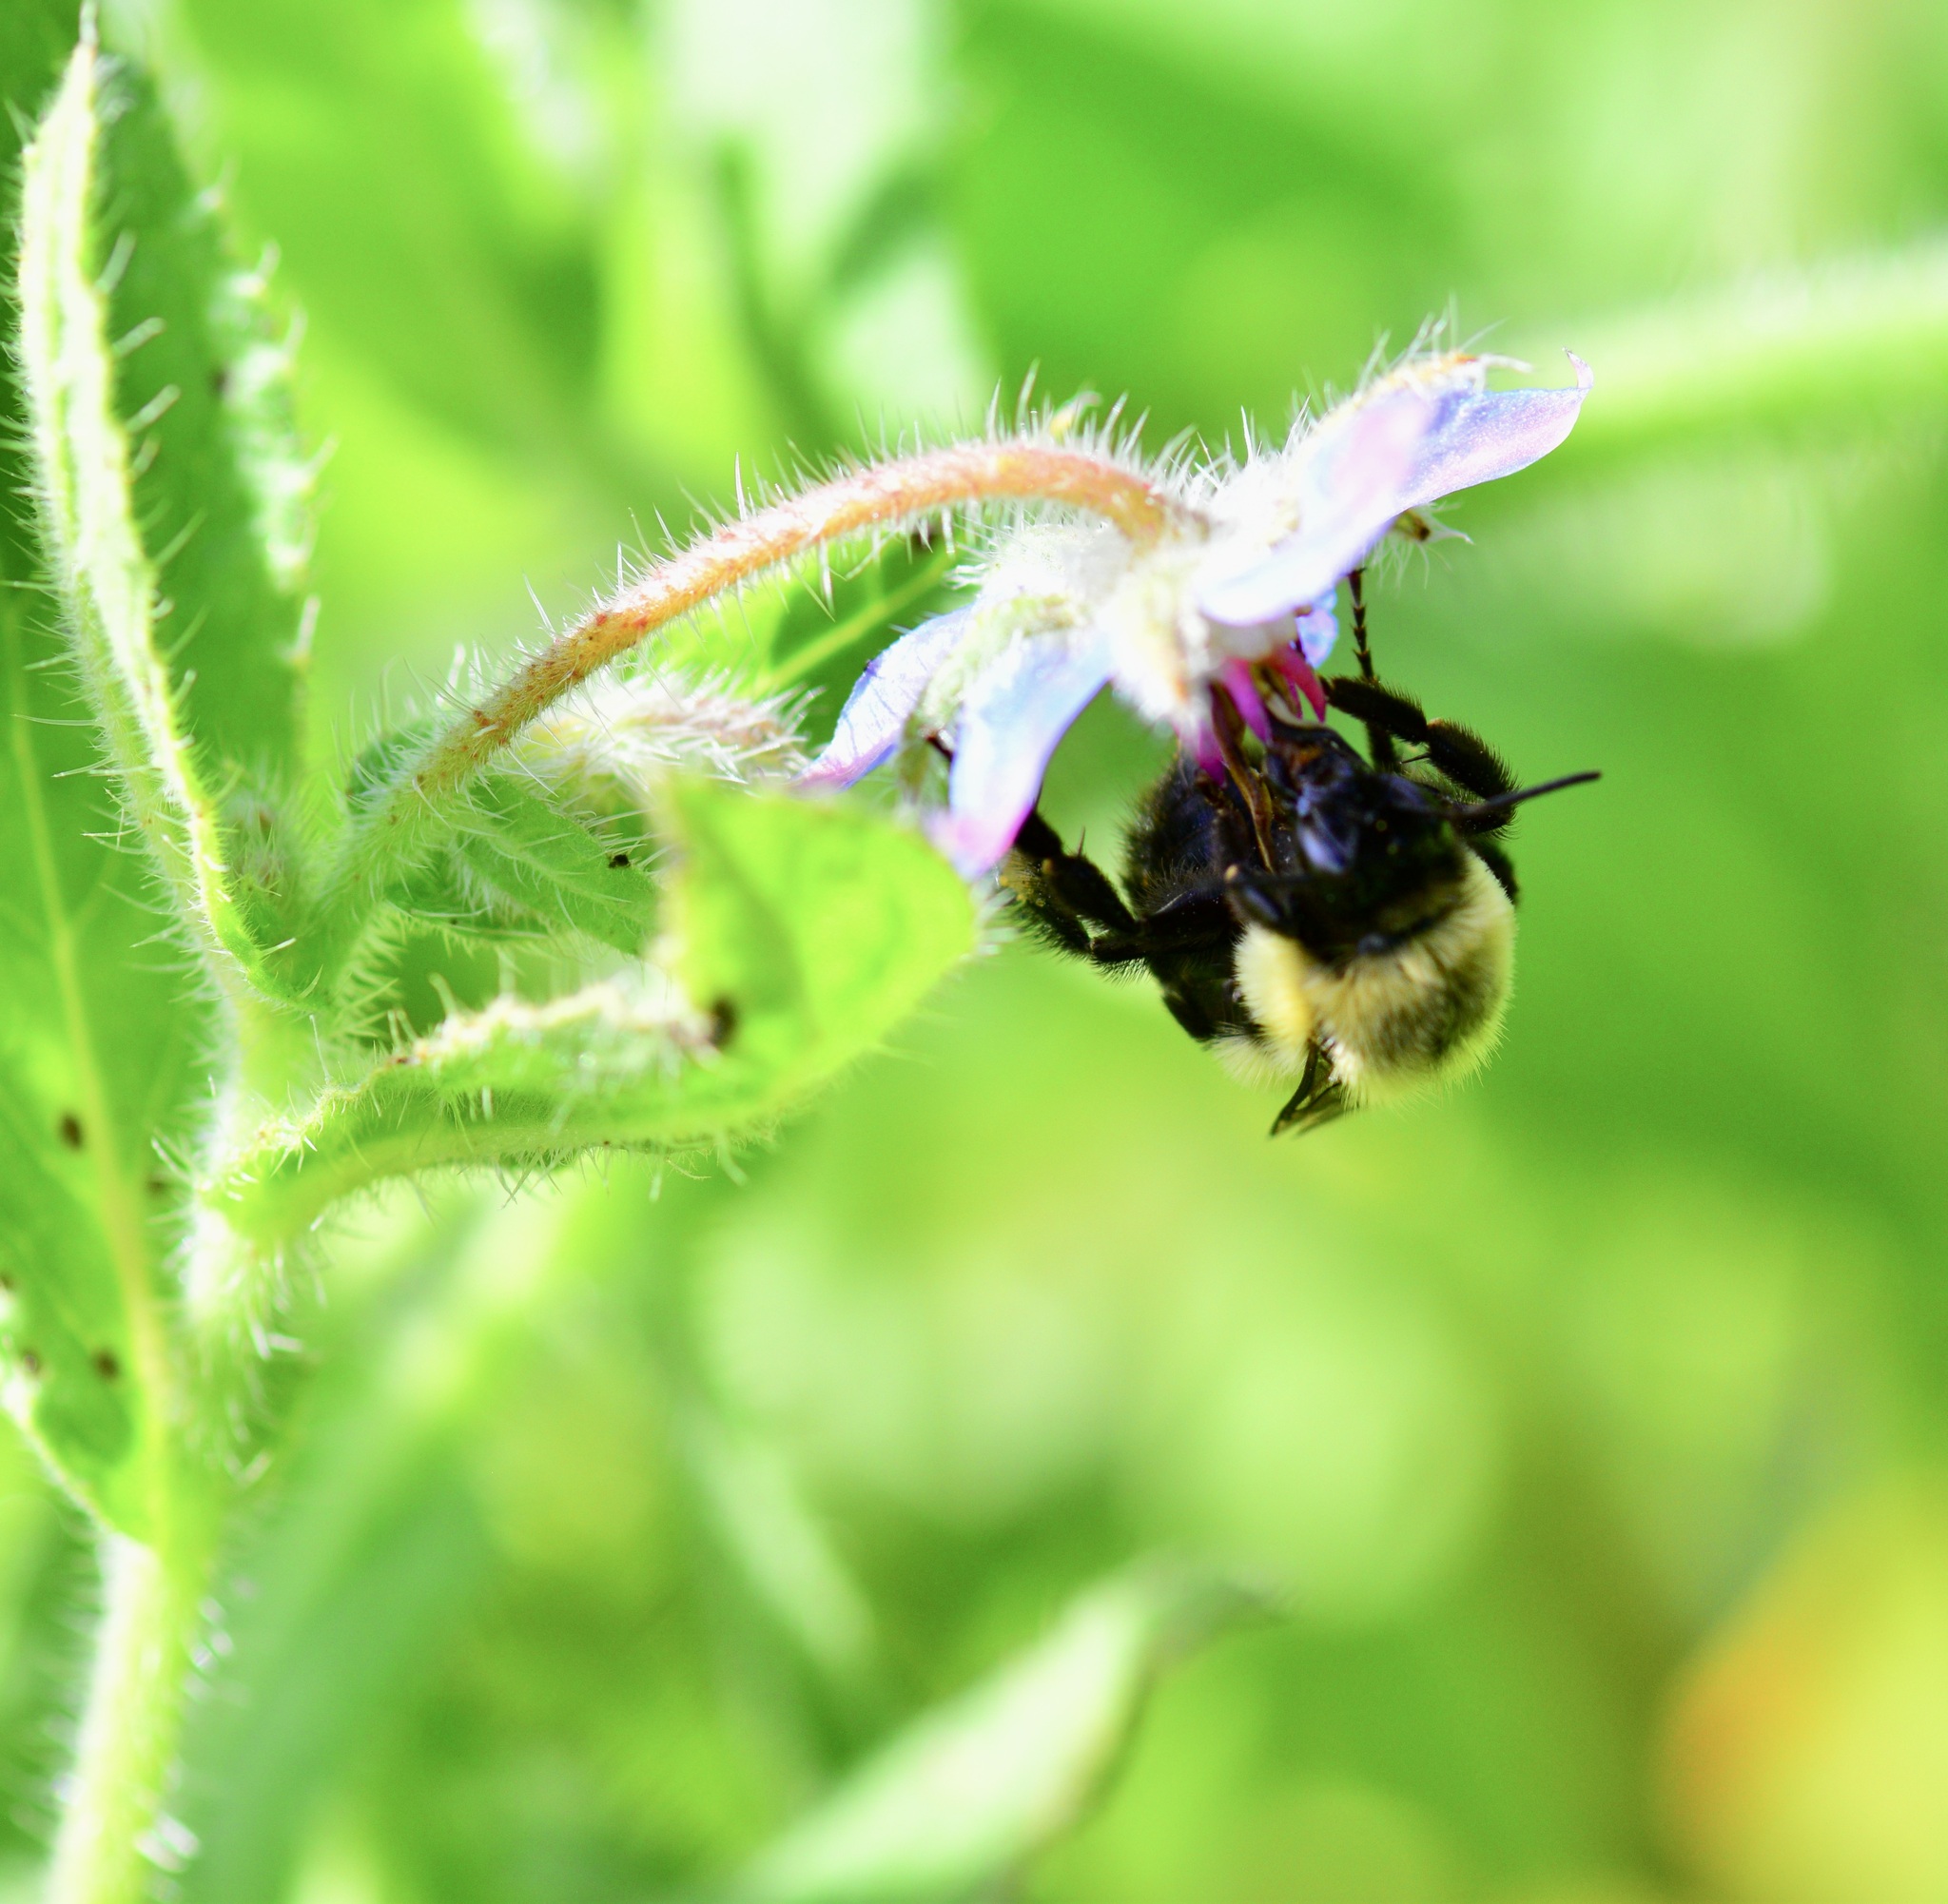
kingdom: Animalia
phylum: Arthropoda
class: Insecta
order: Hymenoptera
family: Apidae
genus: Bombus
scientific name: Bombus impatiens
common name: Common eastern bumble bee
